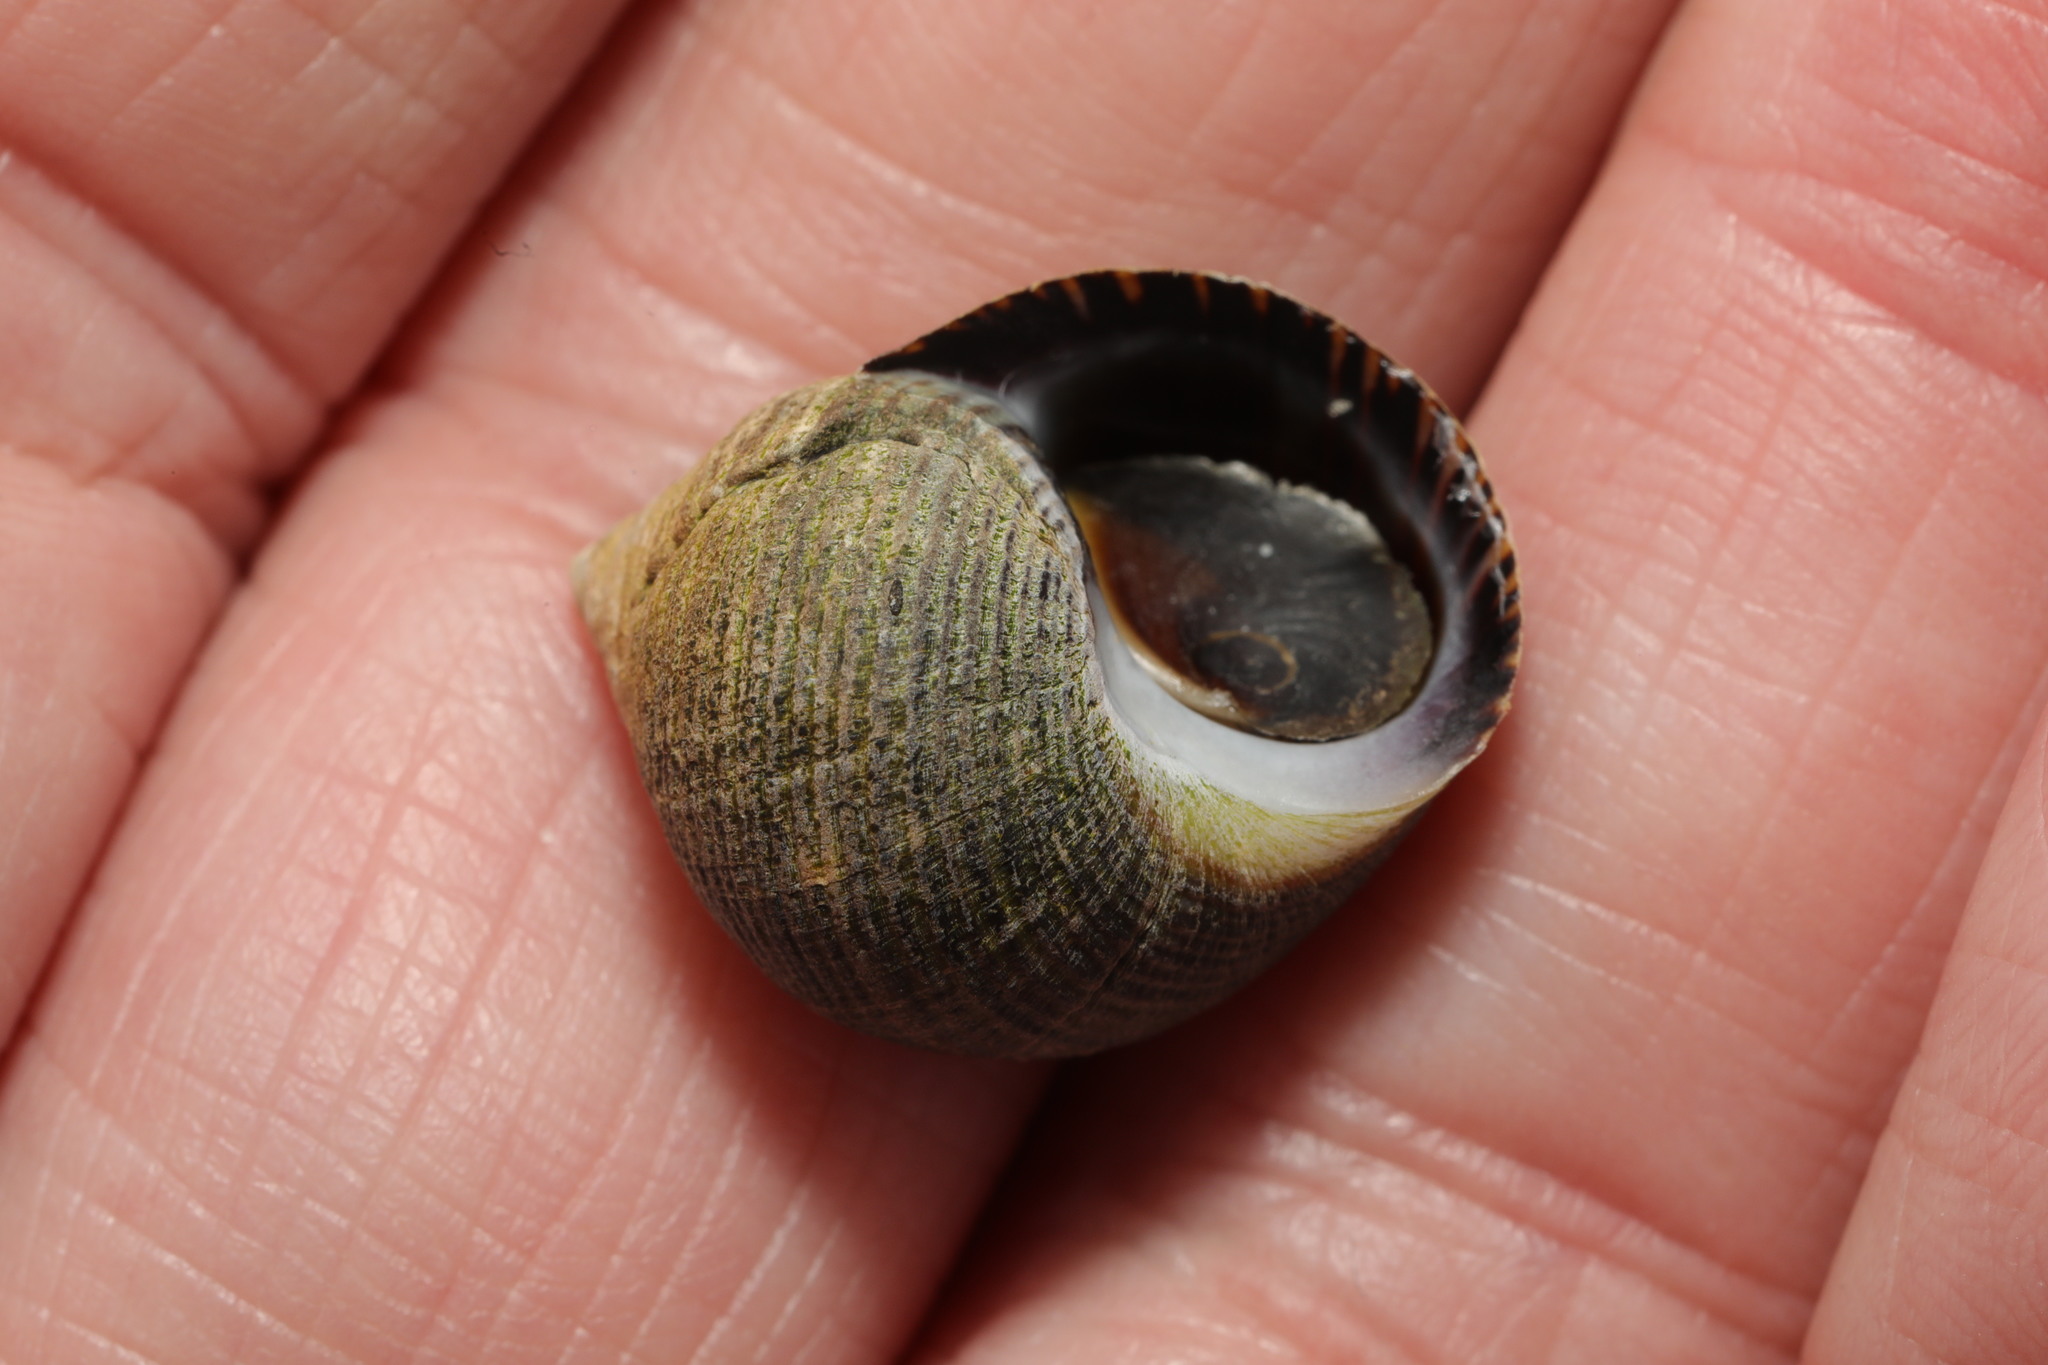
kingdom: Animalia
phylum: Mollusca
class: Gastropoda
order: Littorinimorpha
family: Littorinidae
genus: Littorina
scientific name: Littorina littorea
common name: Common periwinkle
